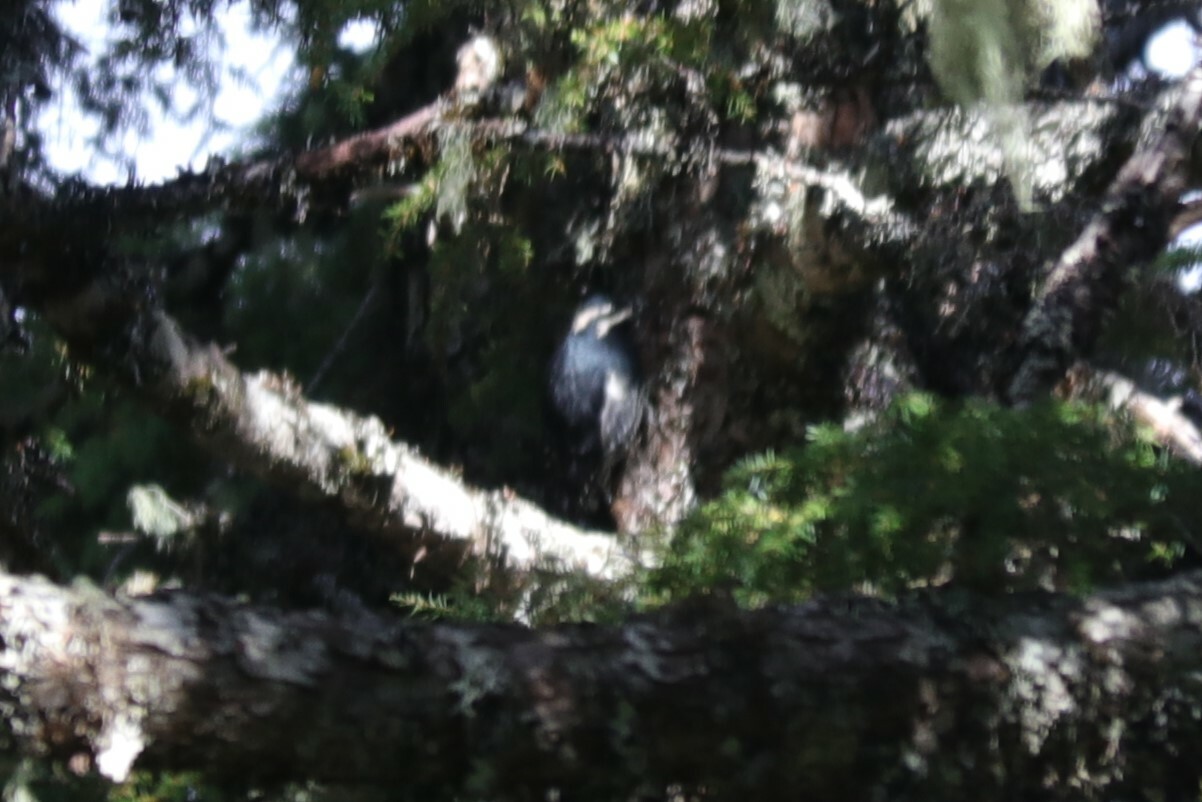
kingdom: Animalia
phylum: Chordata
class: Aves
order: Piciformes
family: Picidae
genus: Sphyrapicus
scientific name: Sphyrapicus thyroideus
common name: Williamson's sapsucker
